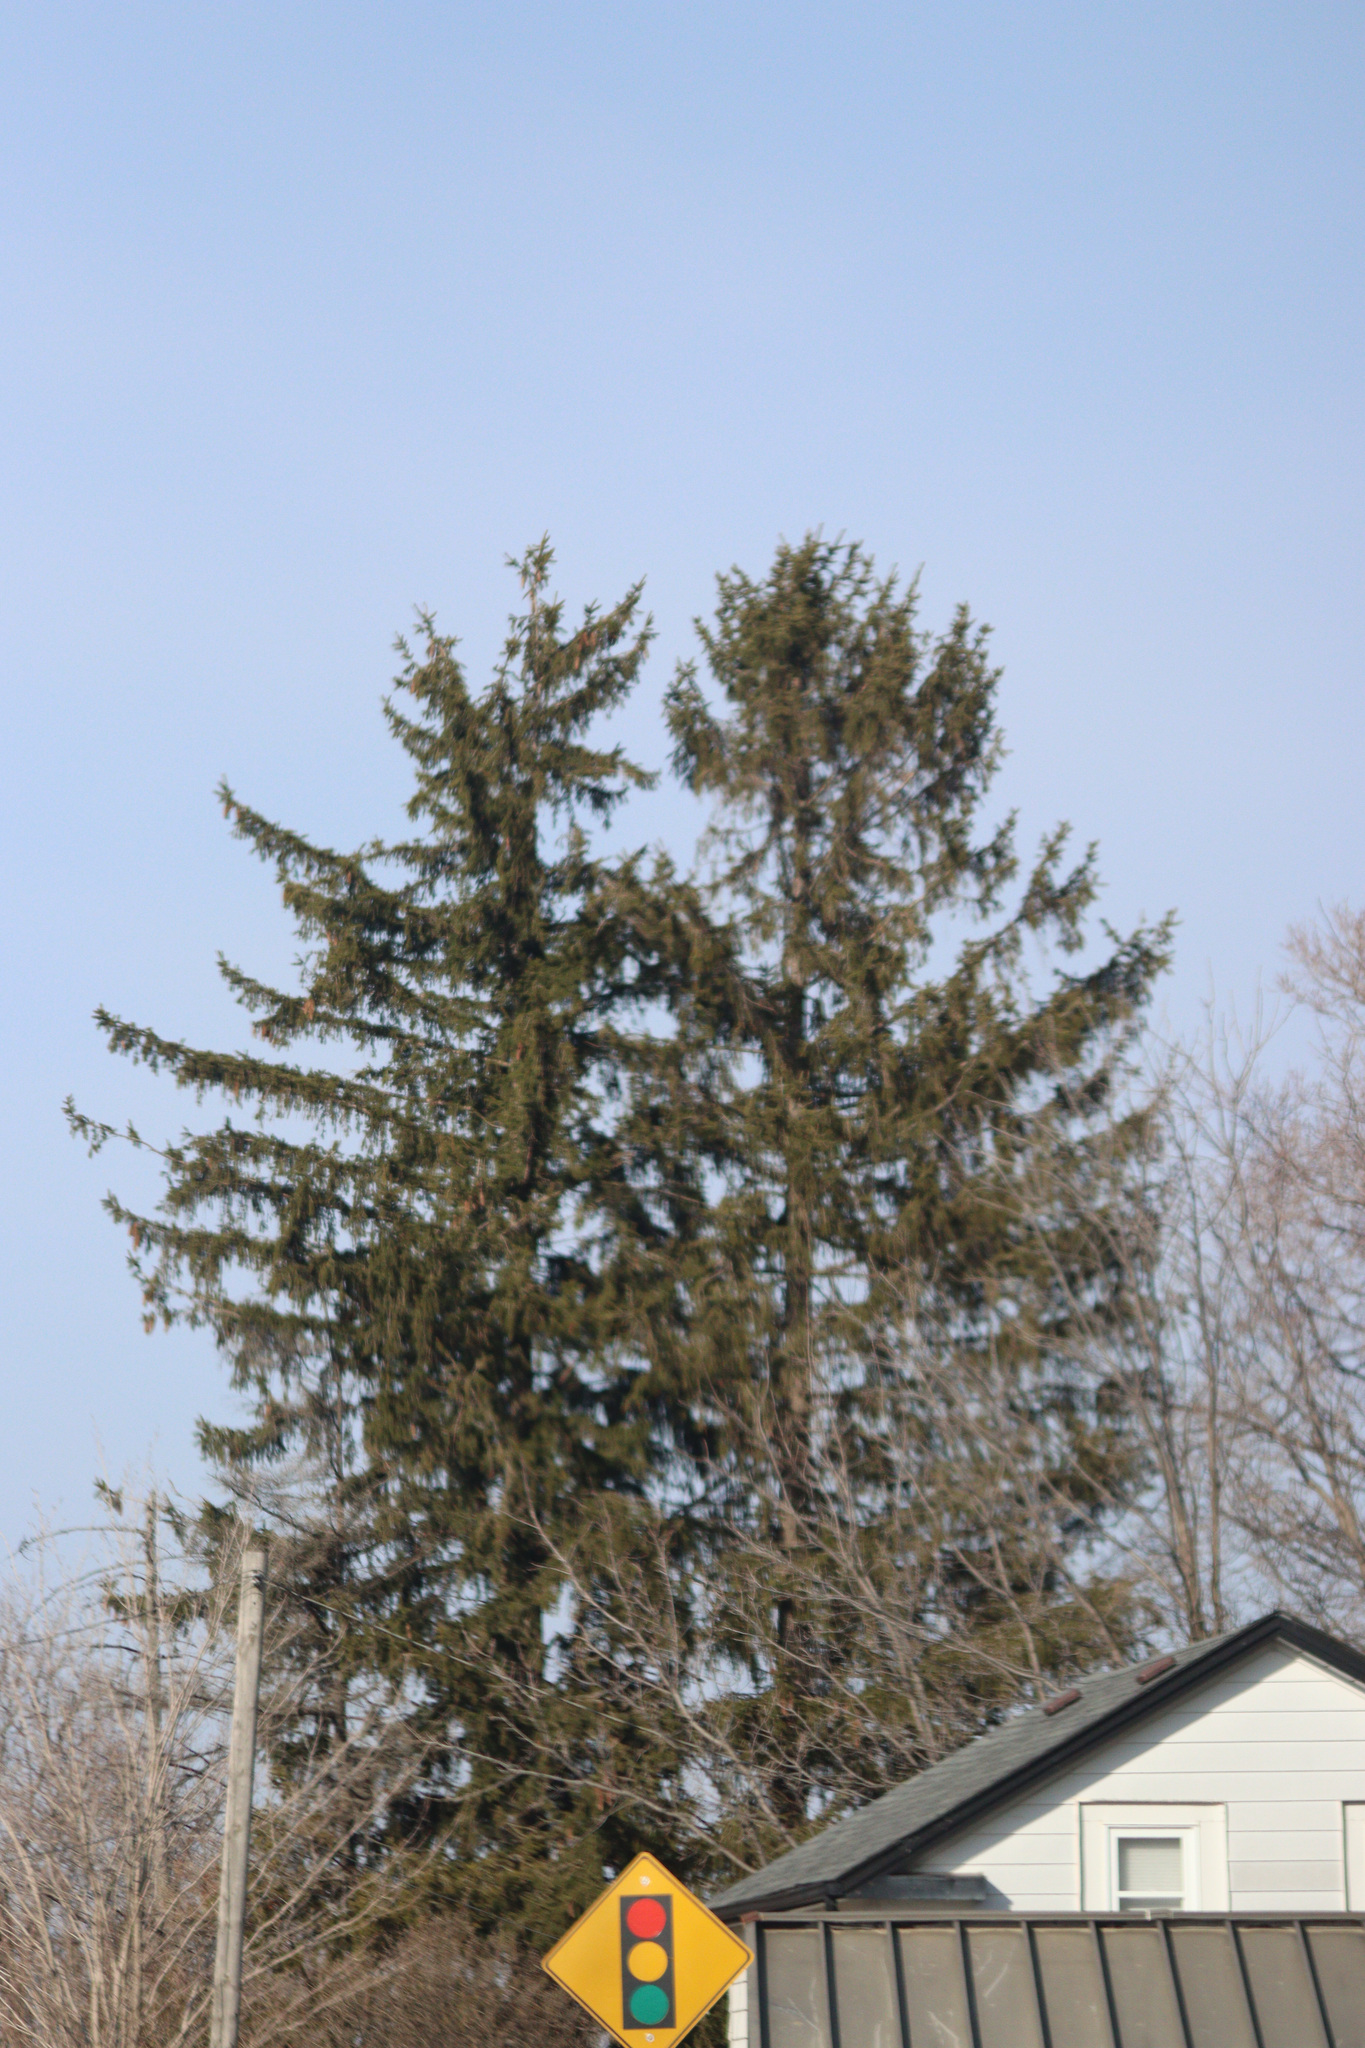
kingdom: Plantae
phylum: Tracheophyta
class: Pinopsida
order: Pinales
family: Pinaceae
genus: Picea
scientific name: Picea abies
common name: Norway spruce
